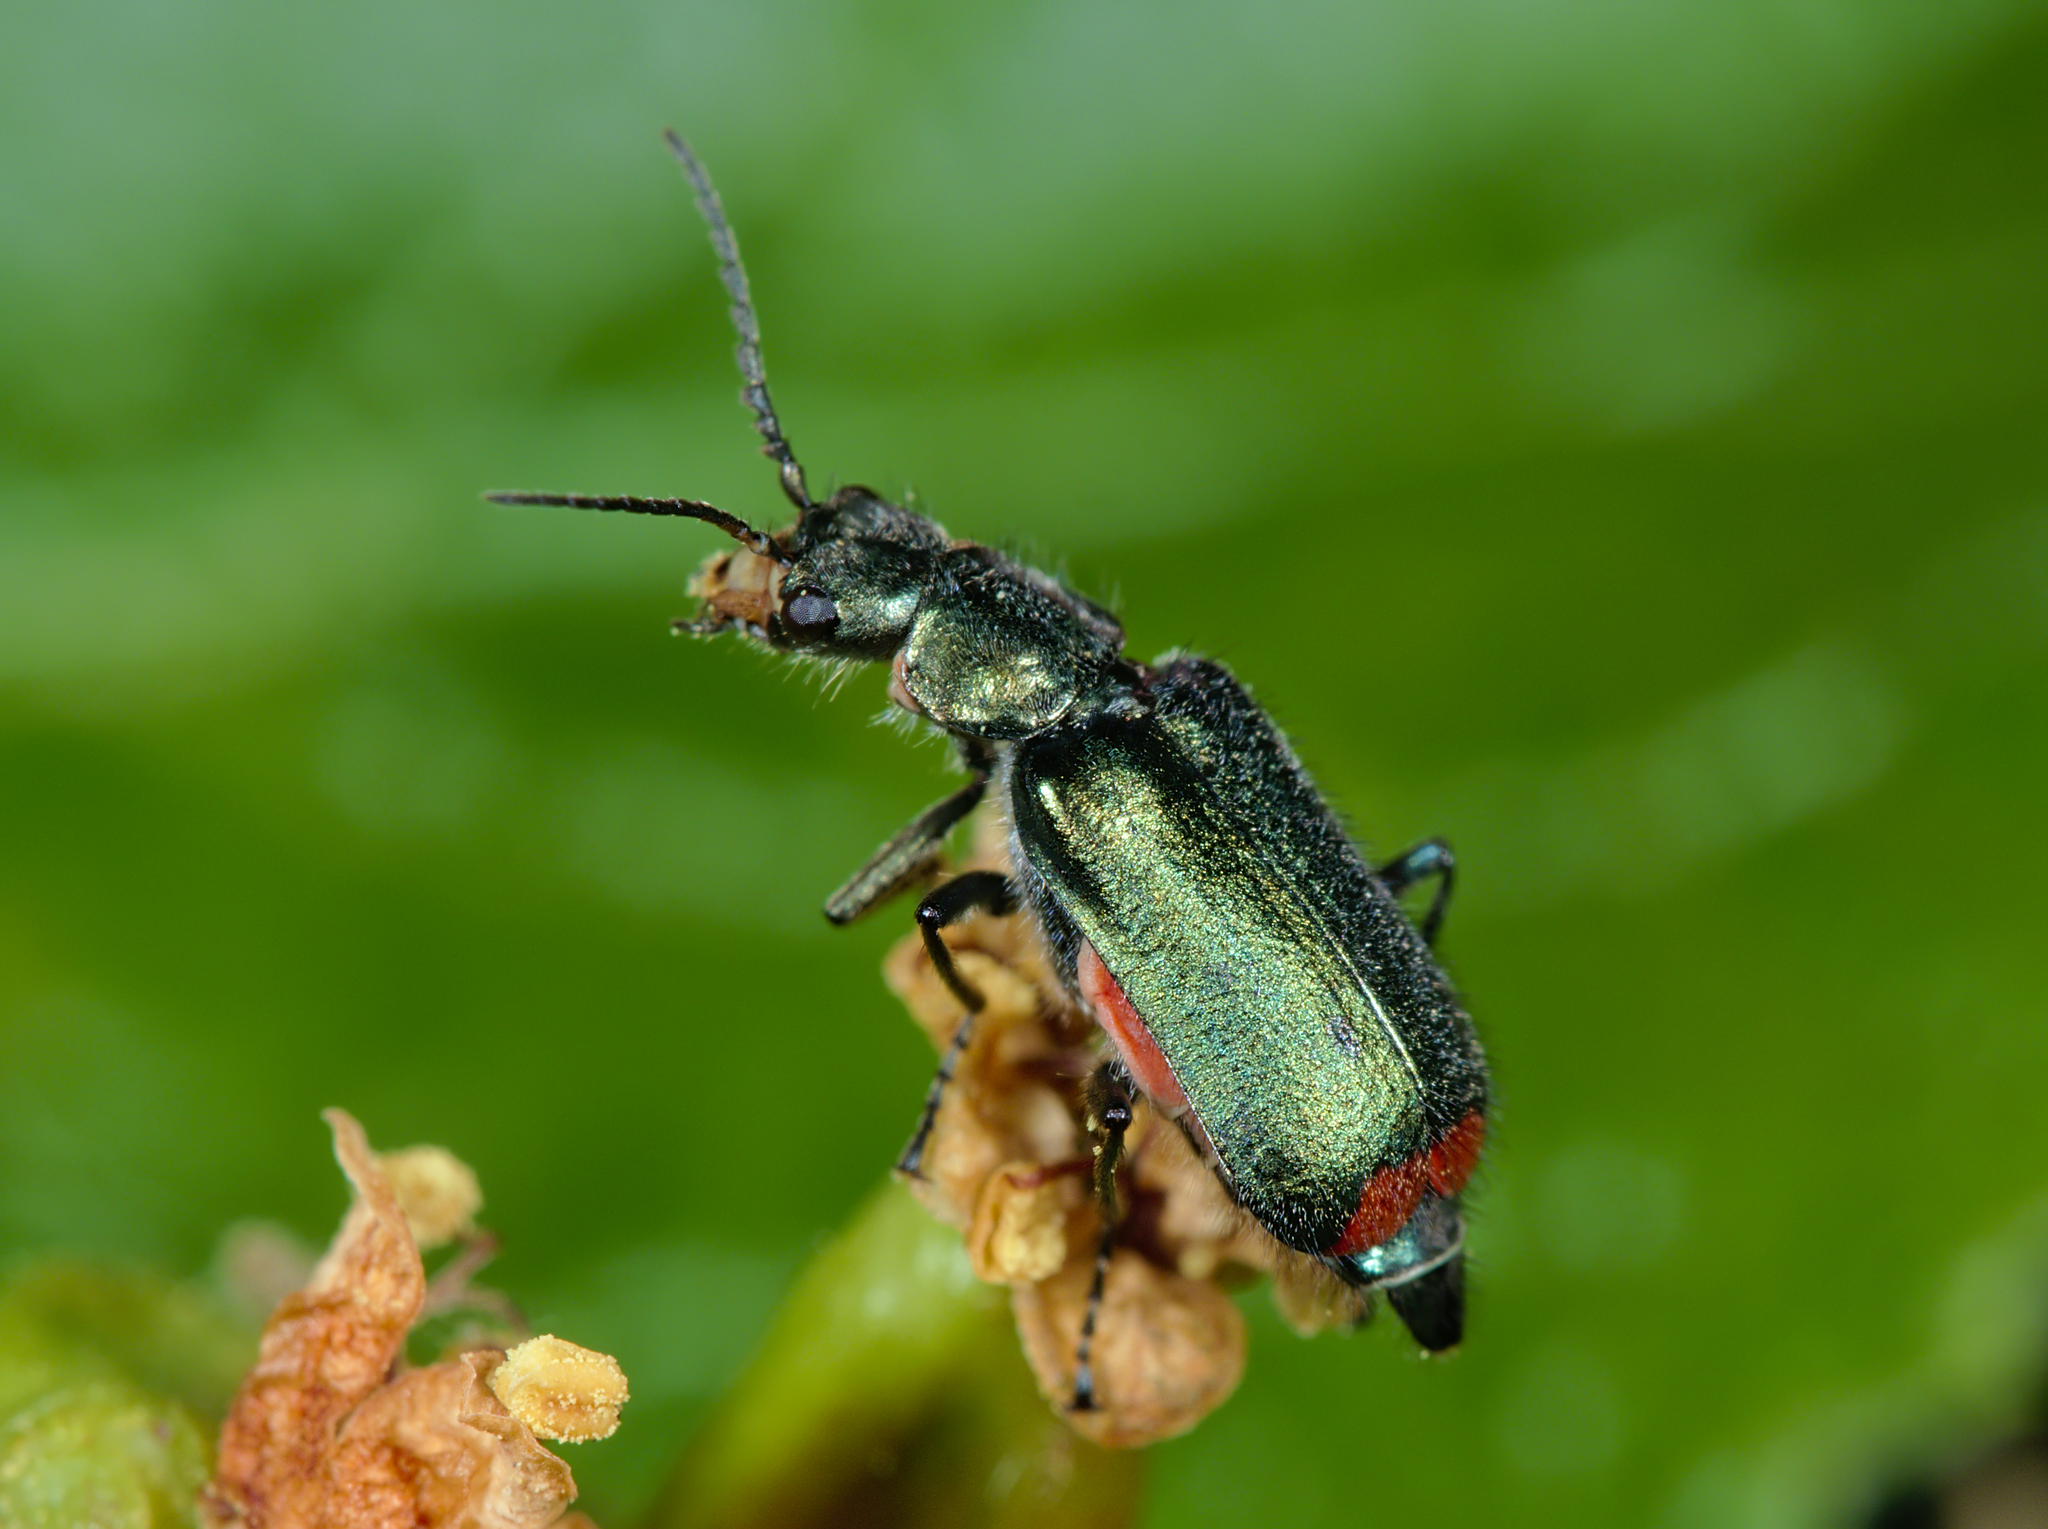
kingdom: Animalia
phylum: Arthropoda
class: Insecta
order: Coleoptera
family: Melyridae
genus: Malachius
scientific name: Malachius bipustulatus
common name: Malachite beetle
